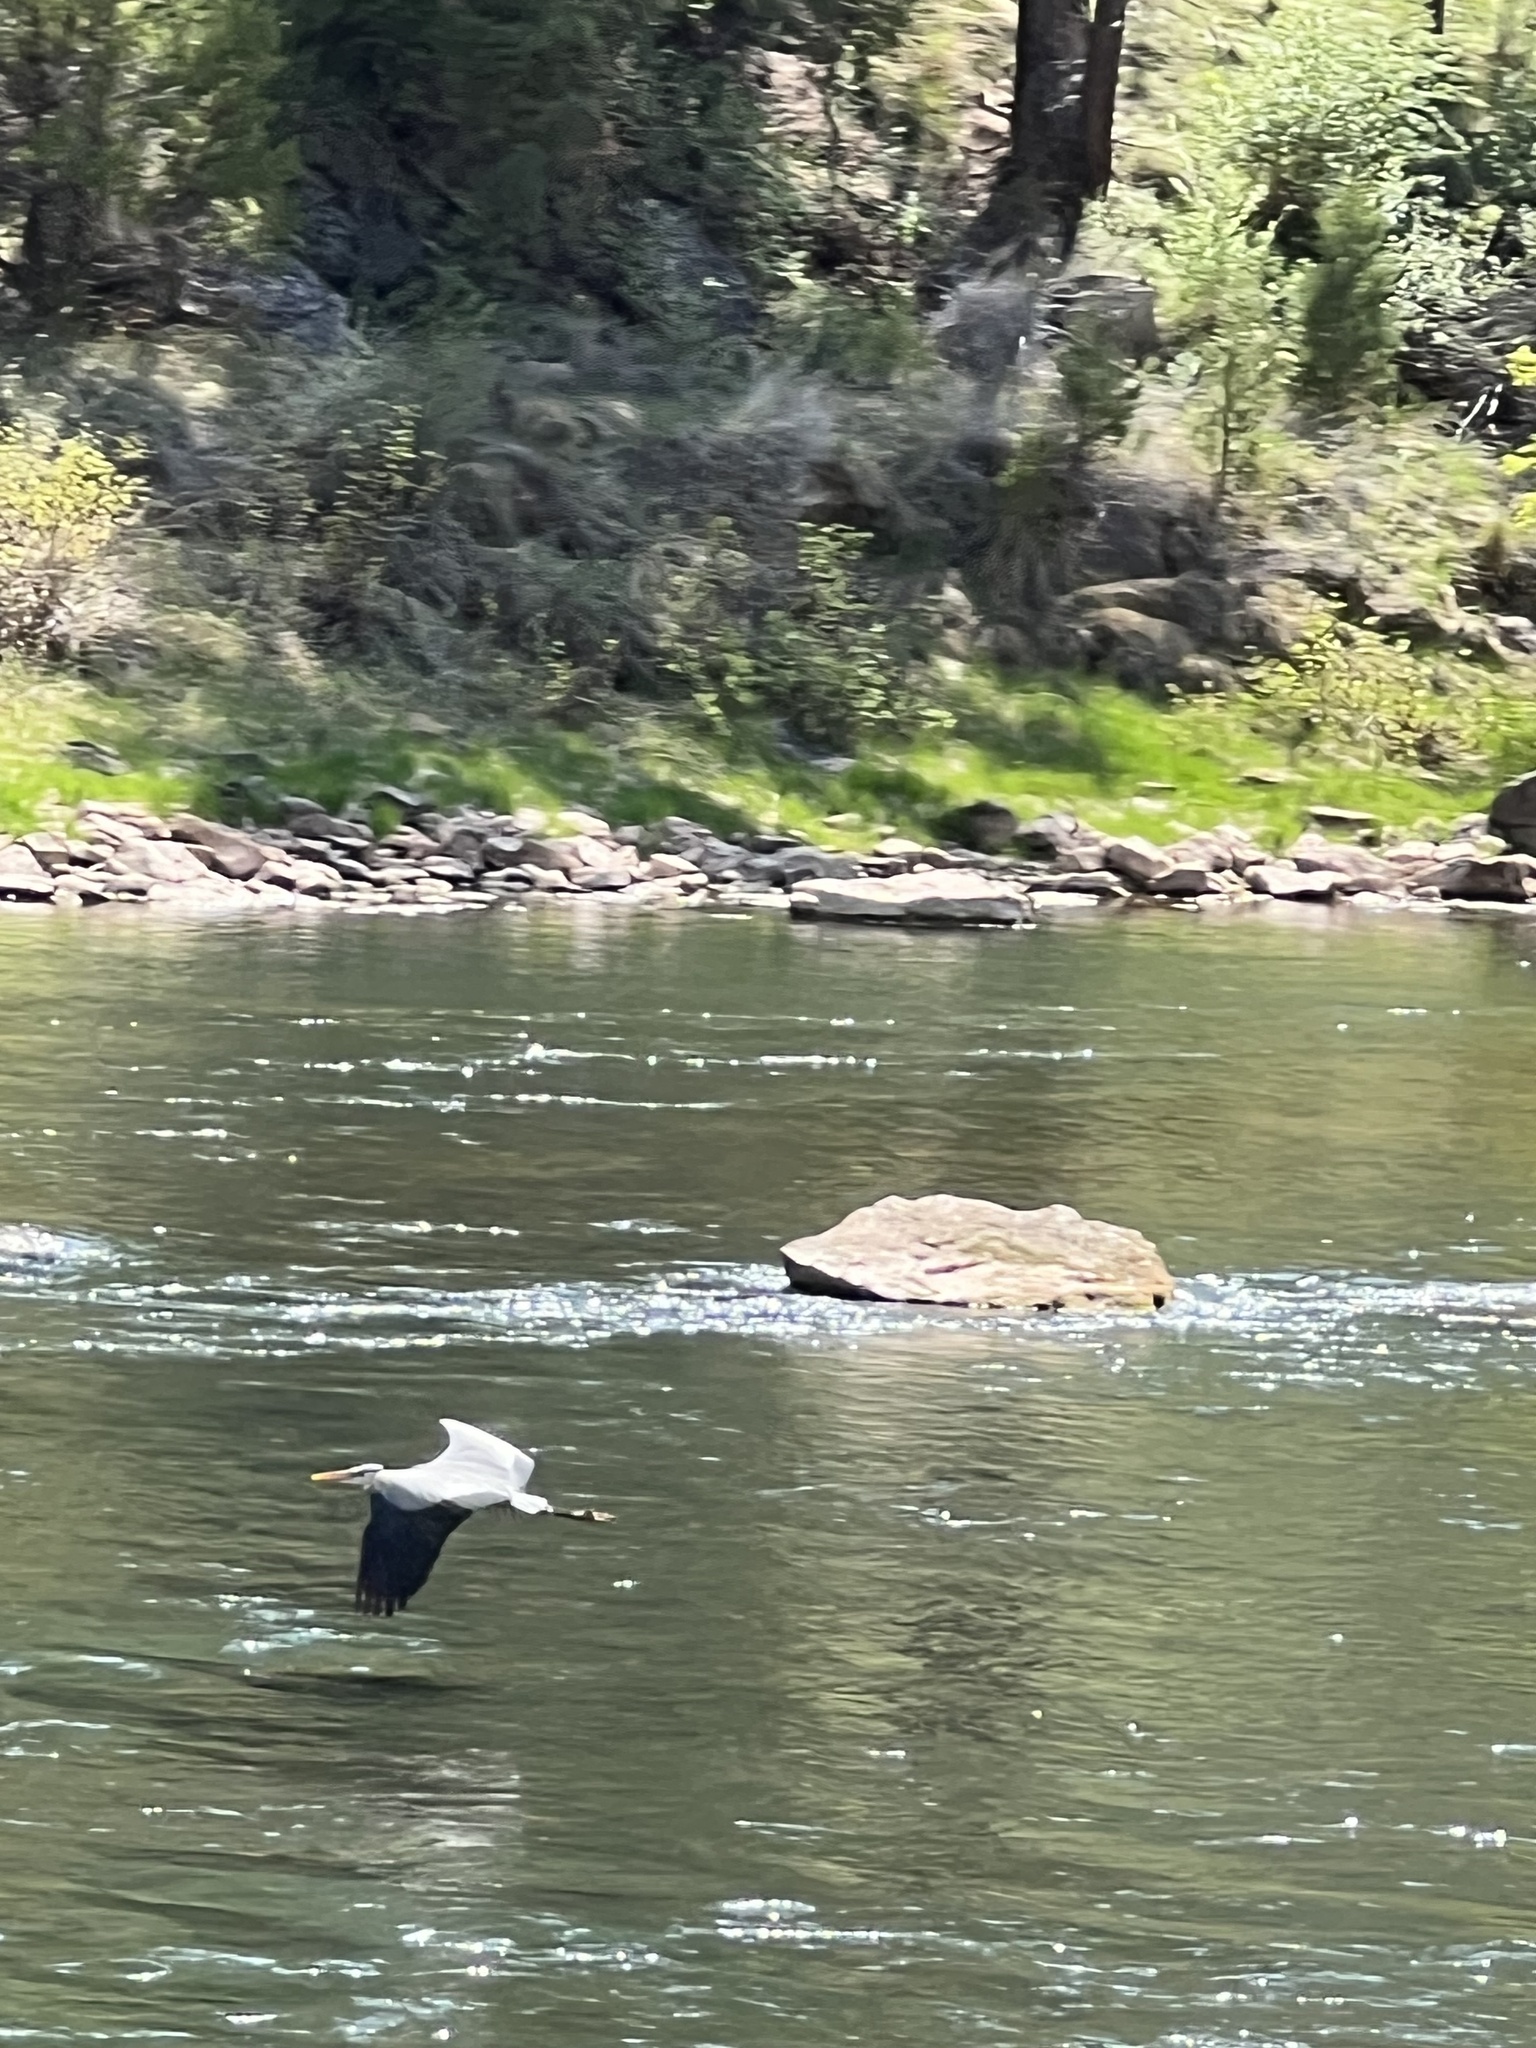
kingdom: Animalia
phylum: Chordata
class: Aves
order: Pelecaniformes
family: Ardeidae
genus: Ardea
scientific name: Ardea herodias
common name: Great blue heron
